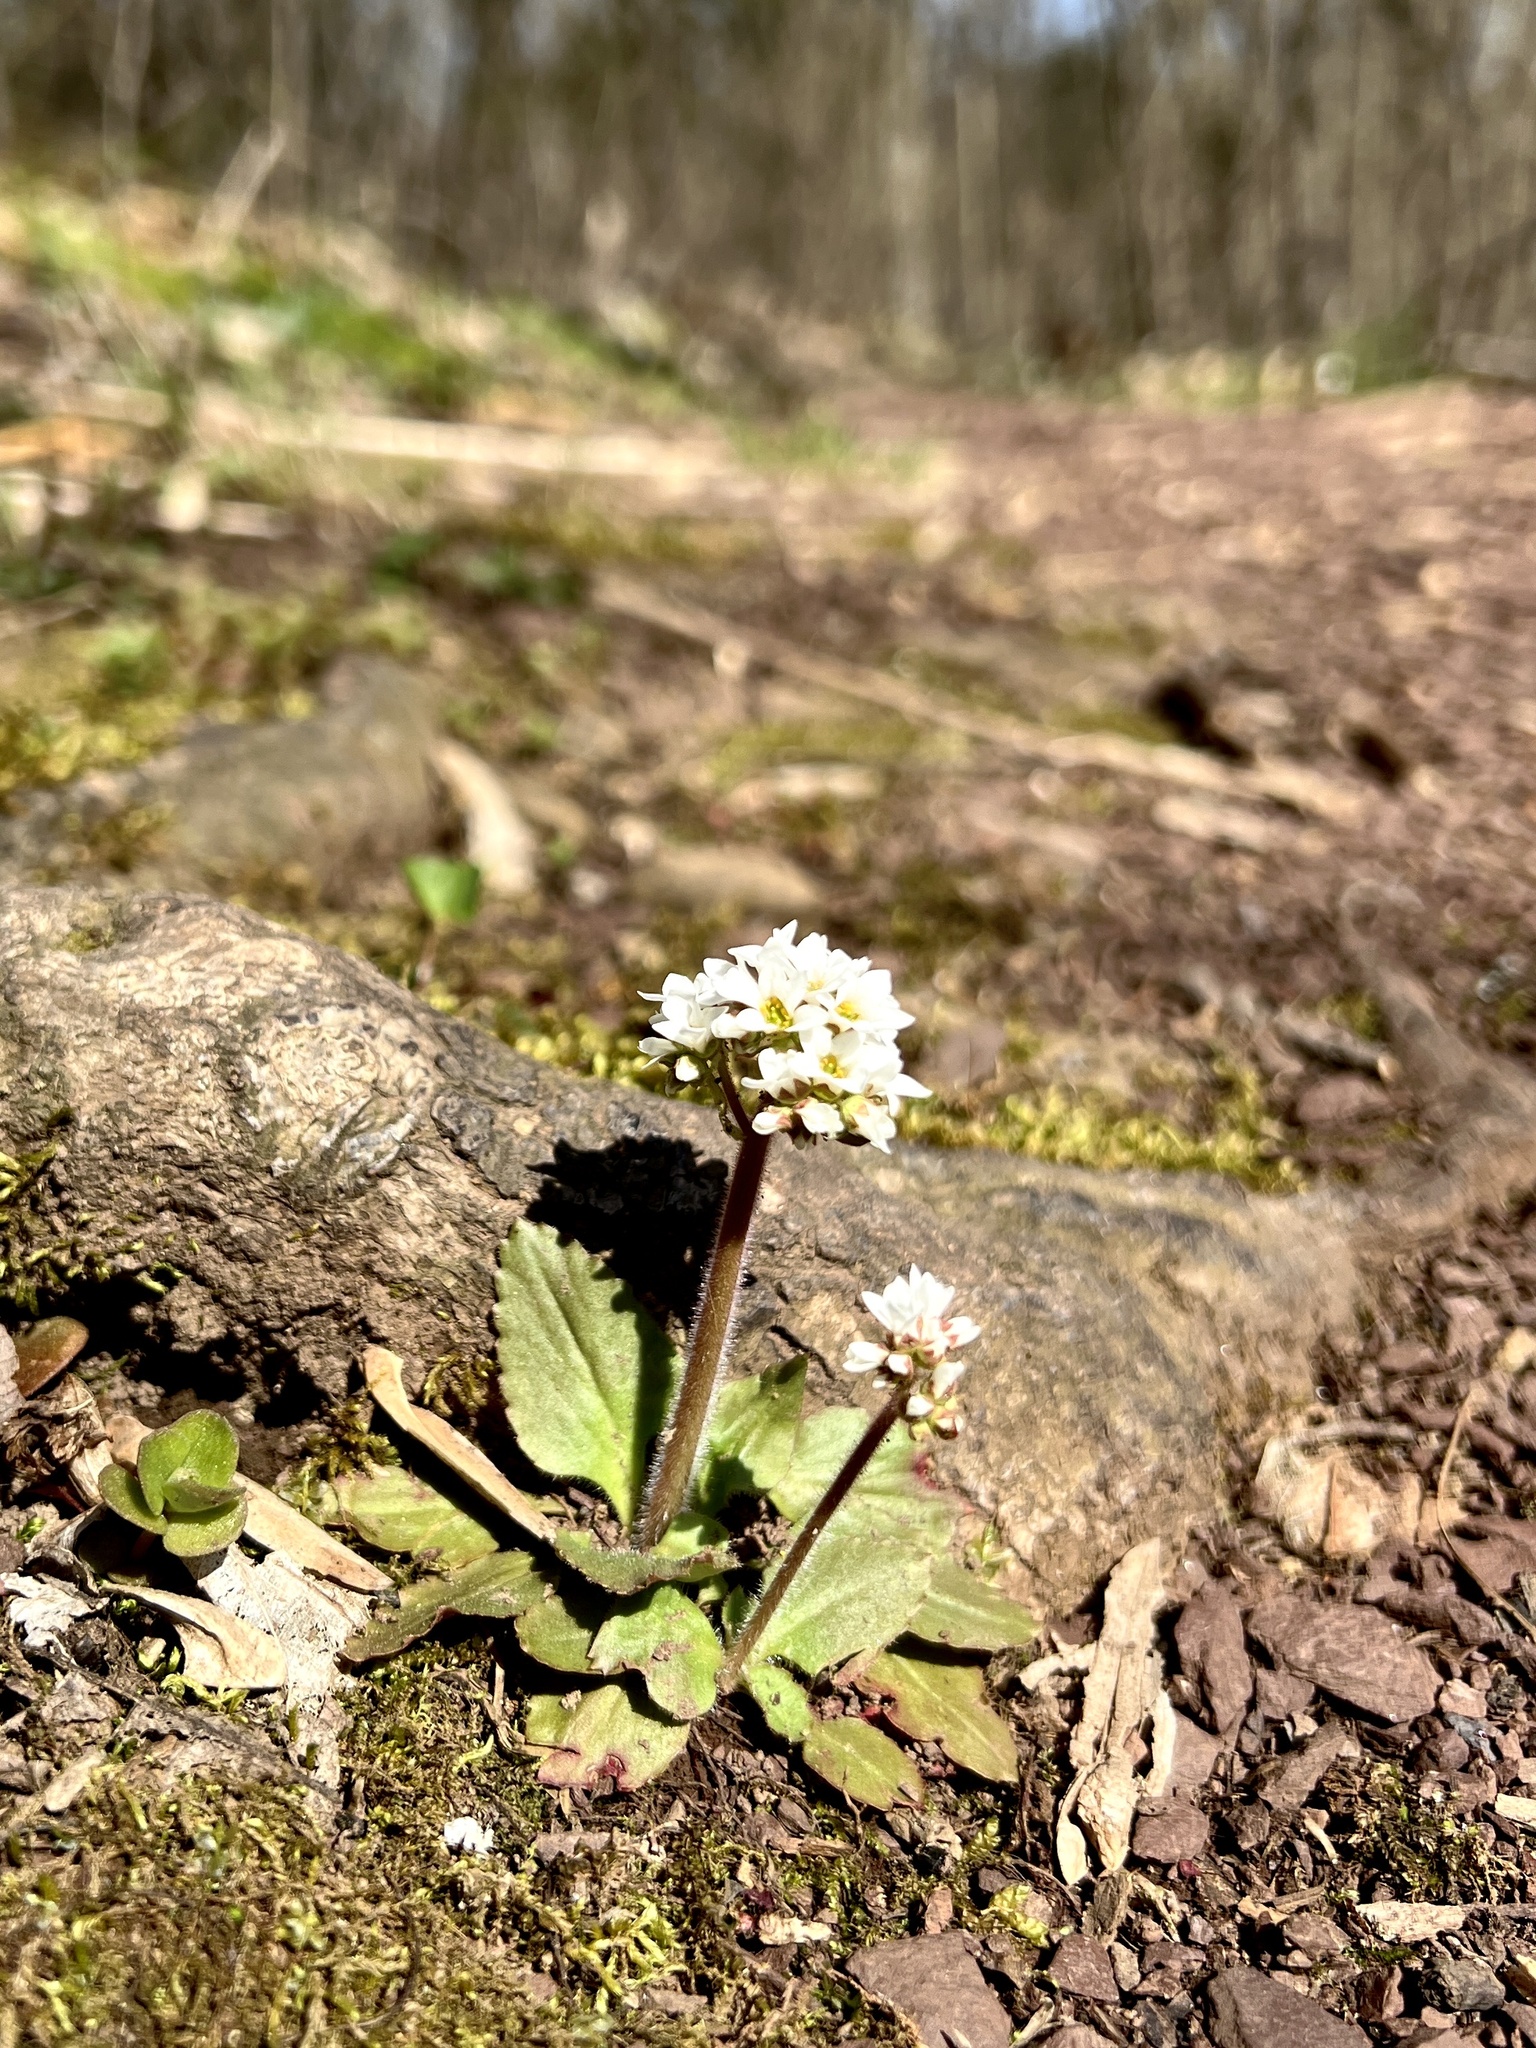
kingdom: Plantae
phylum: Tracheophyta
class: Magnoliopsida
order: Saxifragales
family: Saxifragaceae
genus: Micranthes
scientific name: Micranthes virginiensis
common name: Early saxifrage
